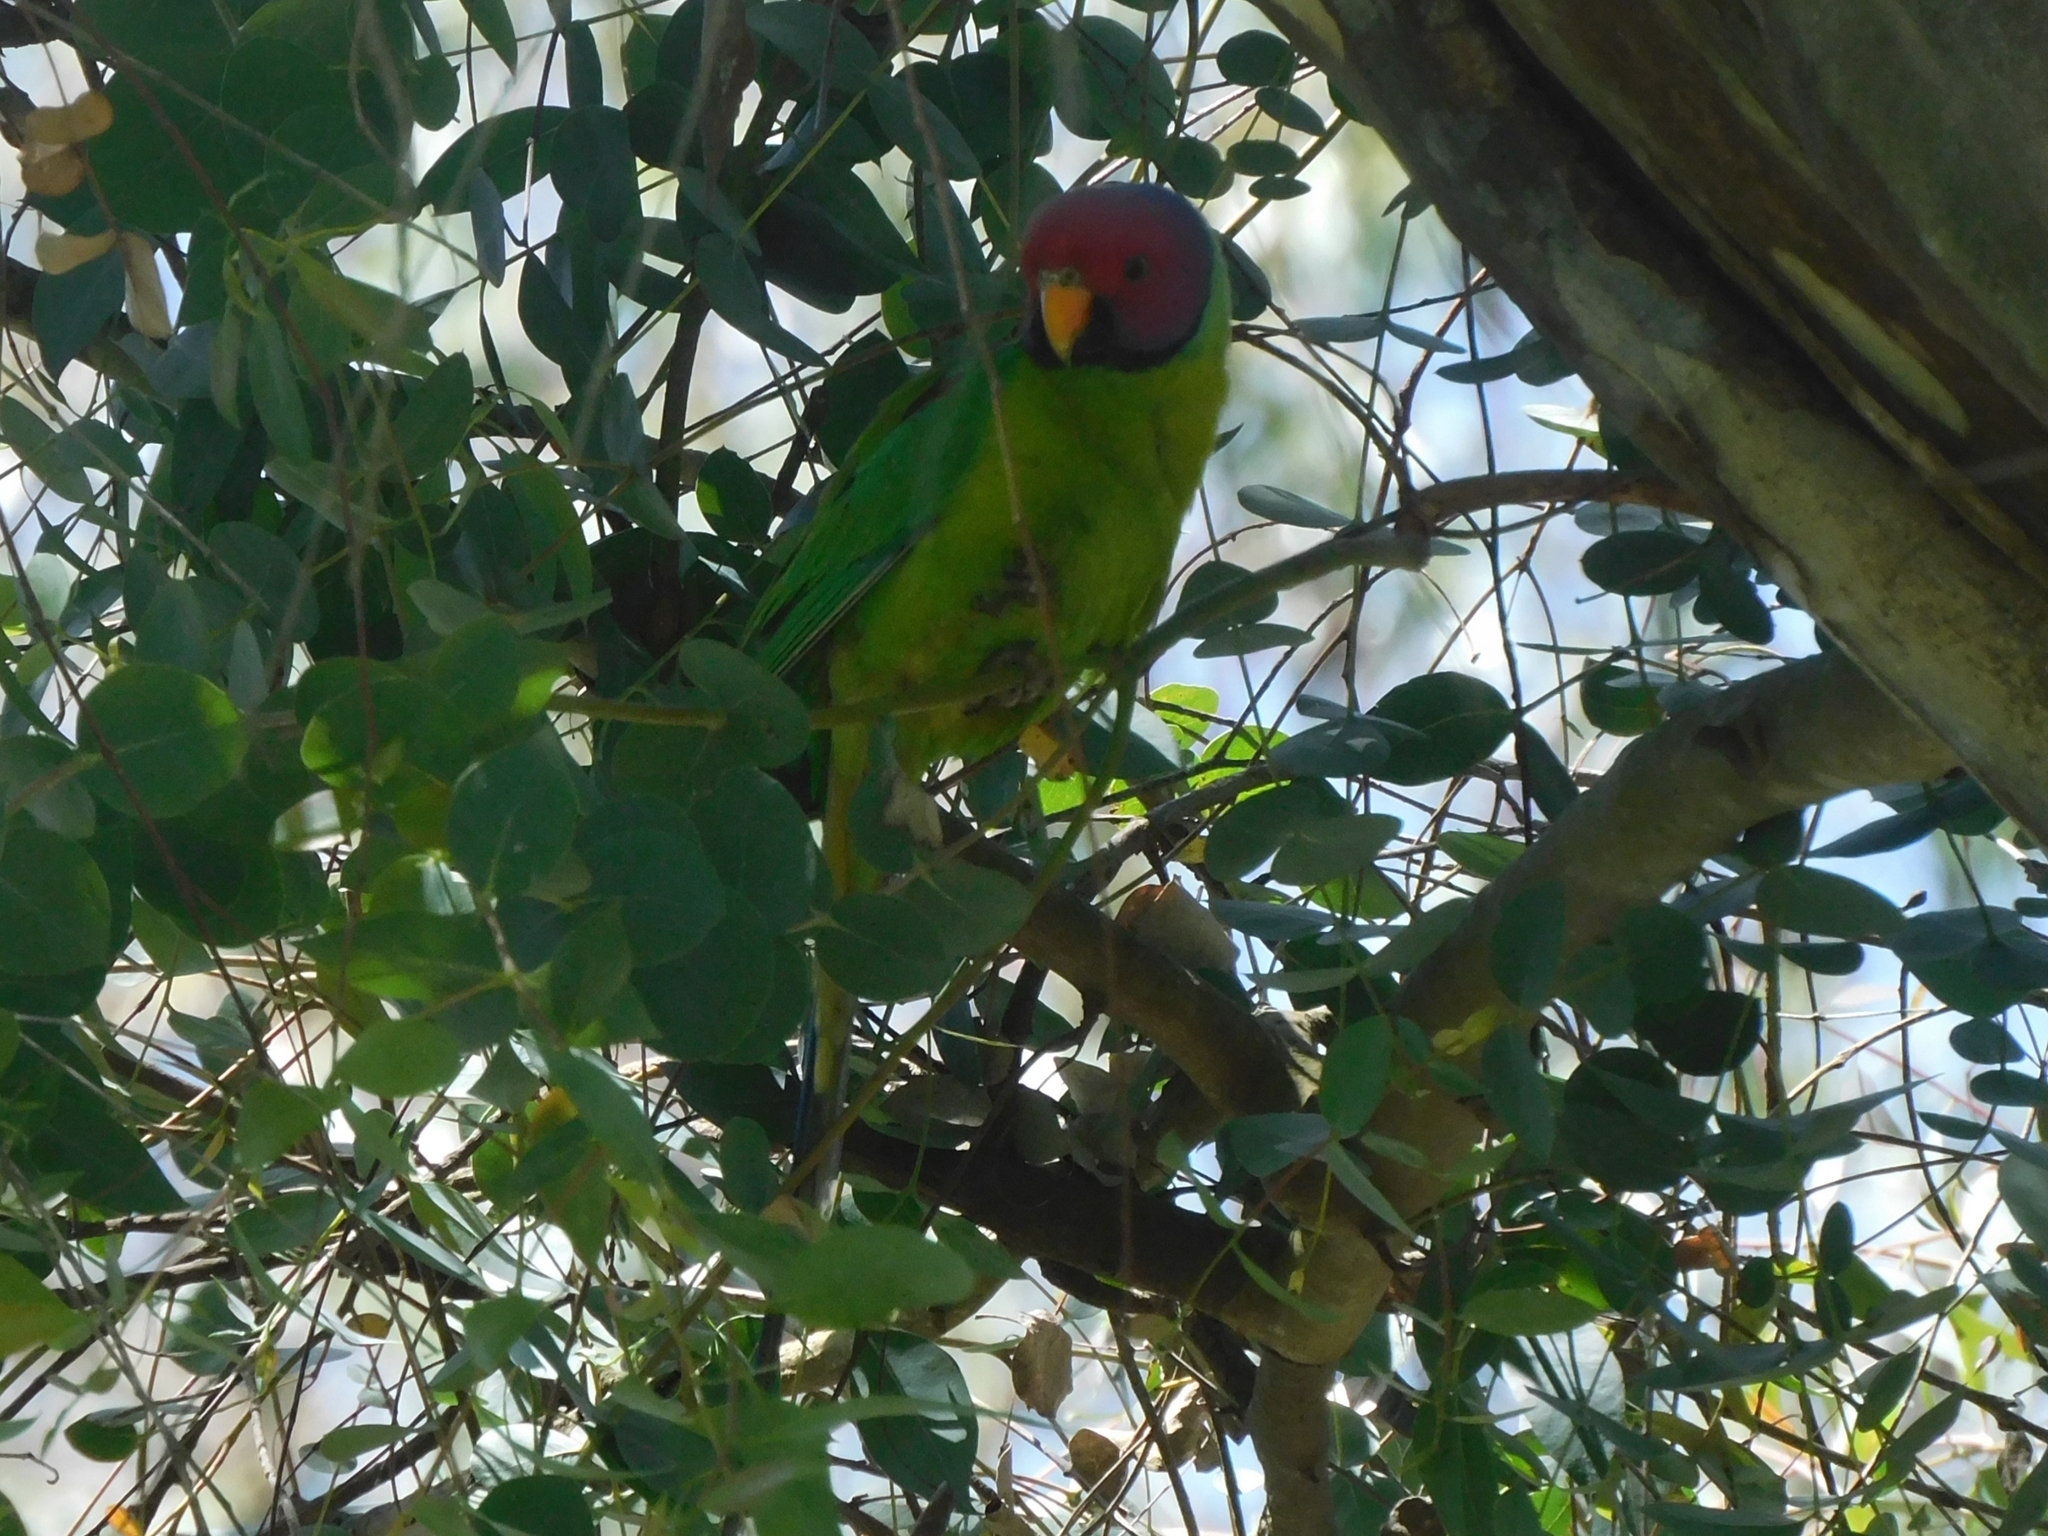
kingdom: Animalia
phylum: Chordata
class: Aves
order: Psittaciformes
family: Psittacidae
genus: Psittacula
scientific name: Psittacula cyanocephala
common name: Plum-headed parakeet
